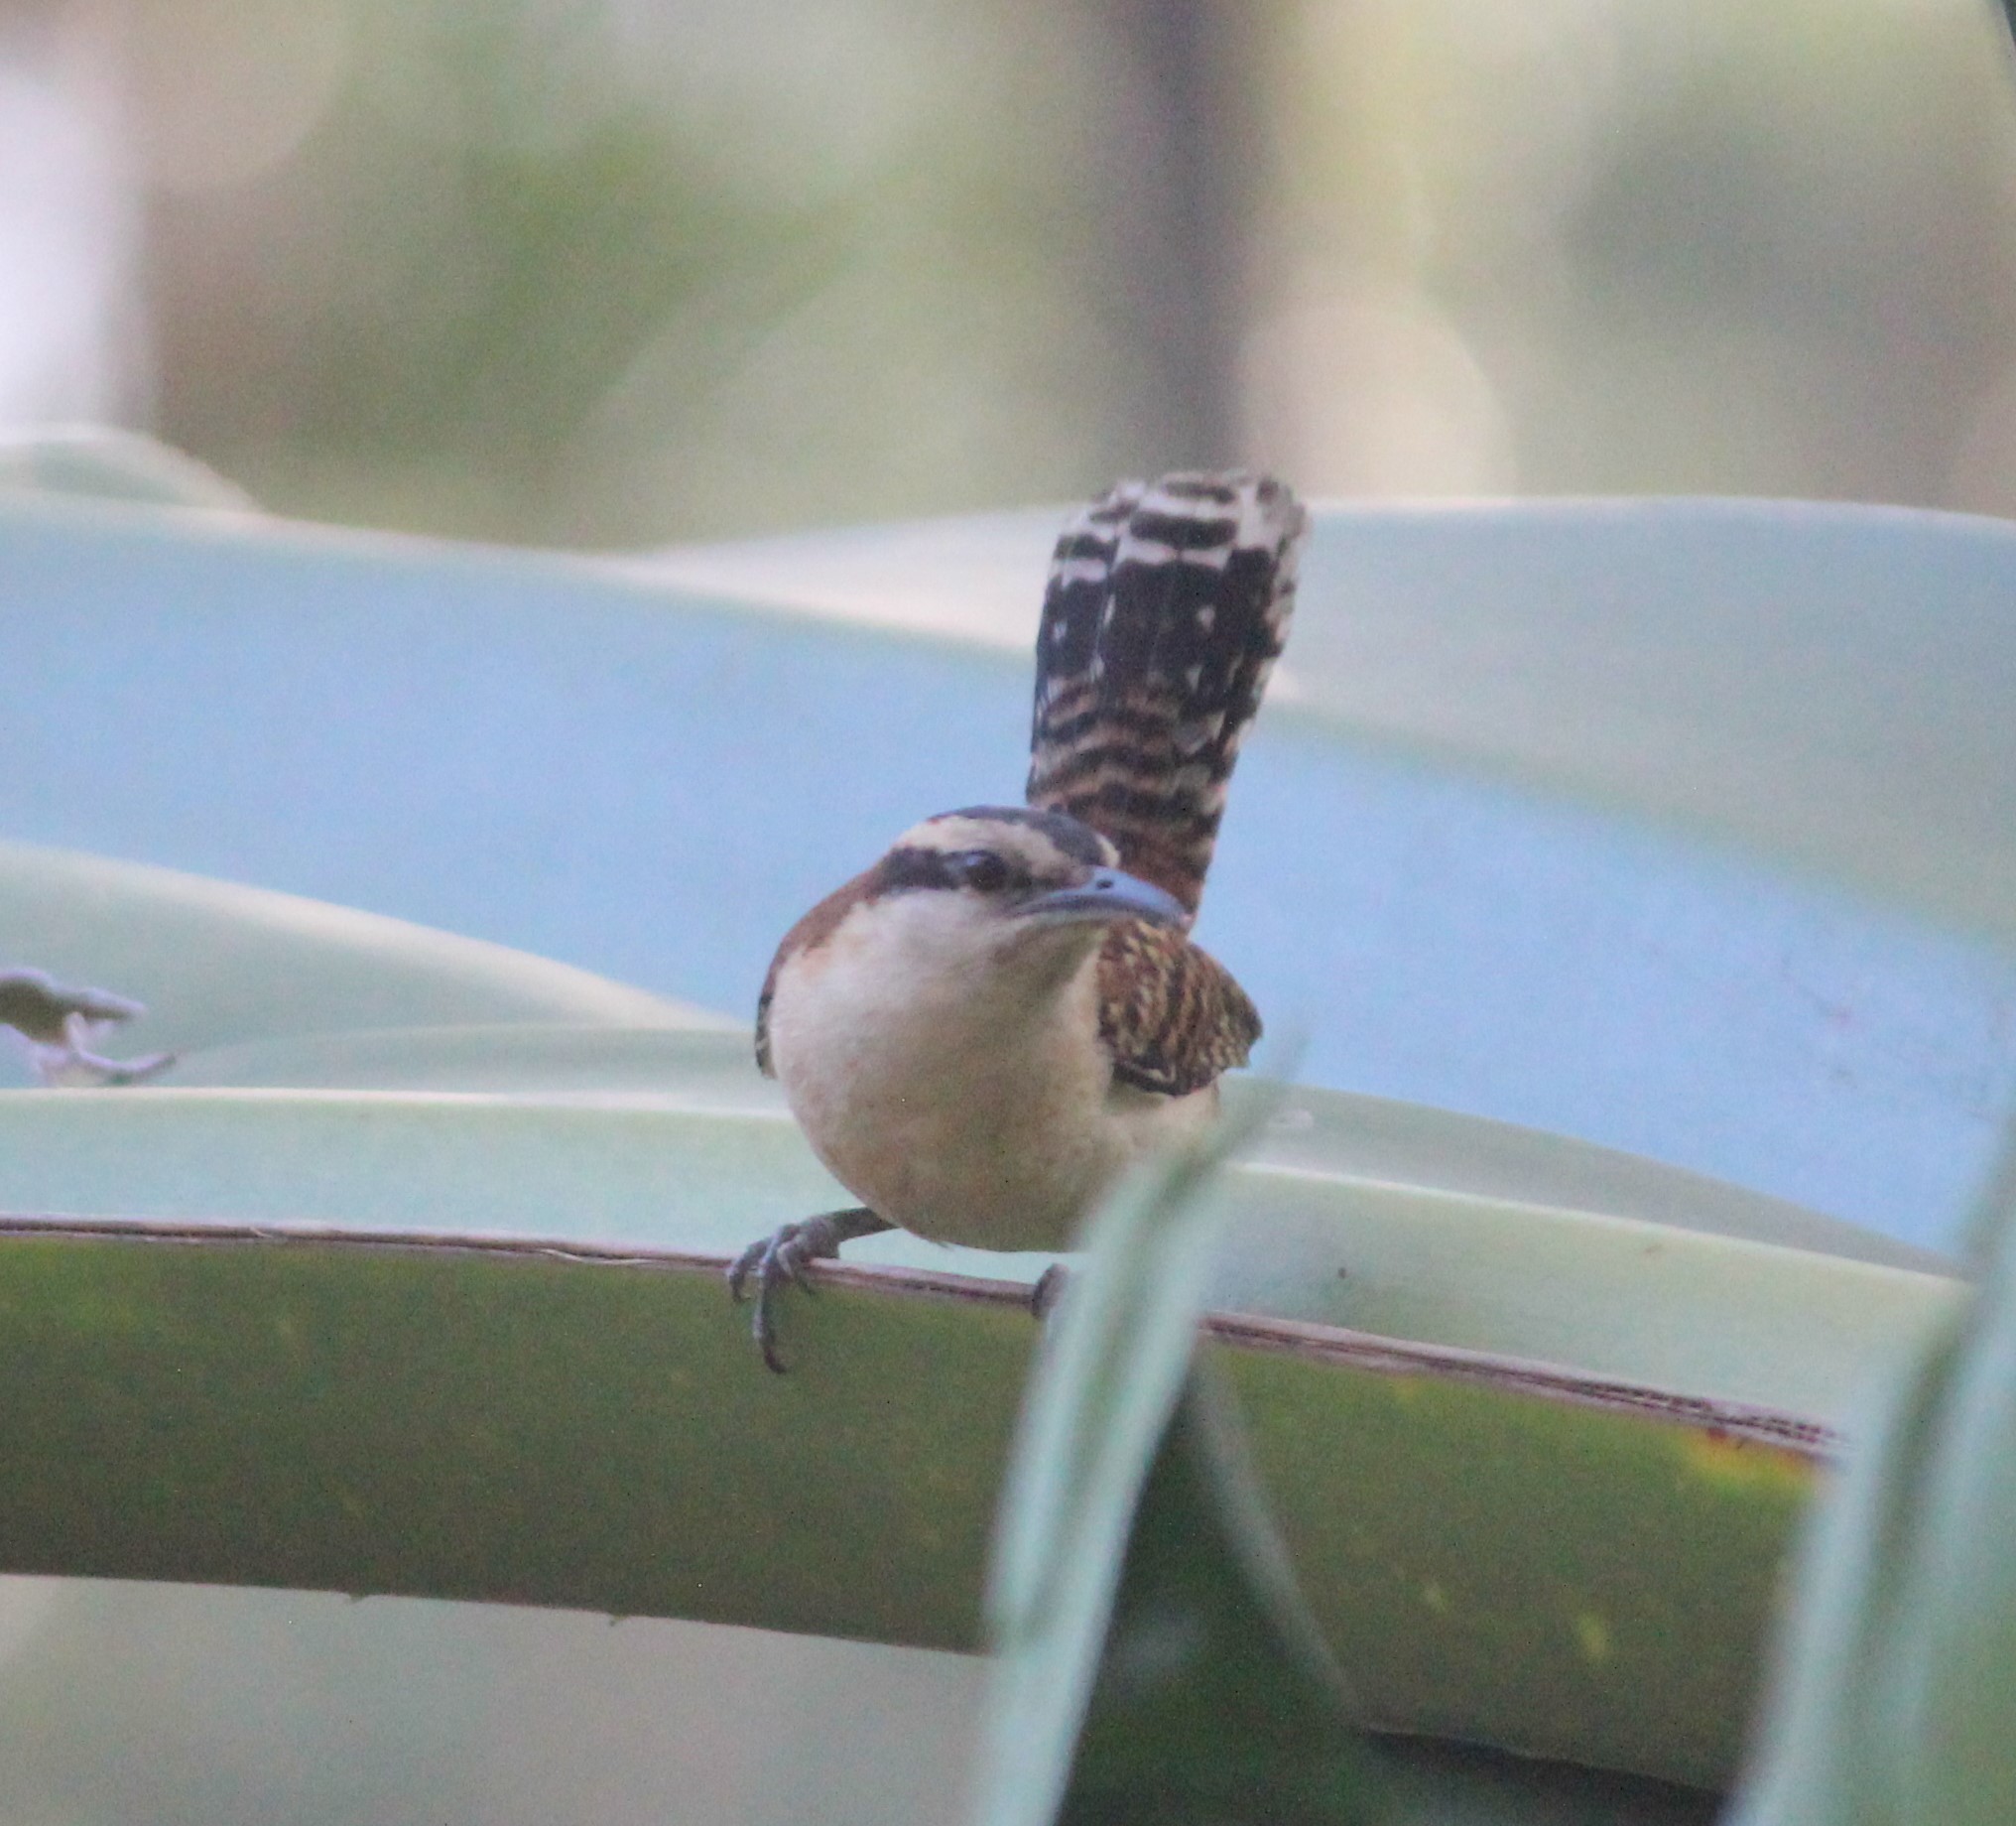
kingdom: Animalia
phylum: Chordata
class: Aves
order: Passeriformes
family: Troglodytidae
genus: Campylorhynchus
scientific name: Campylorhynchus rufinucha
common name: Rufous-naped wren
